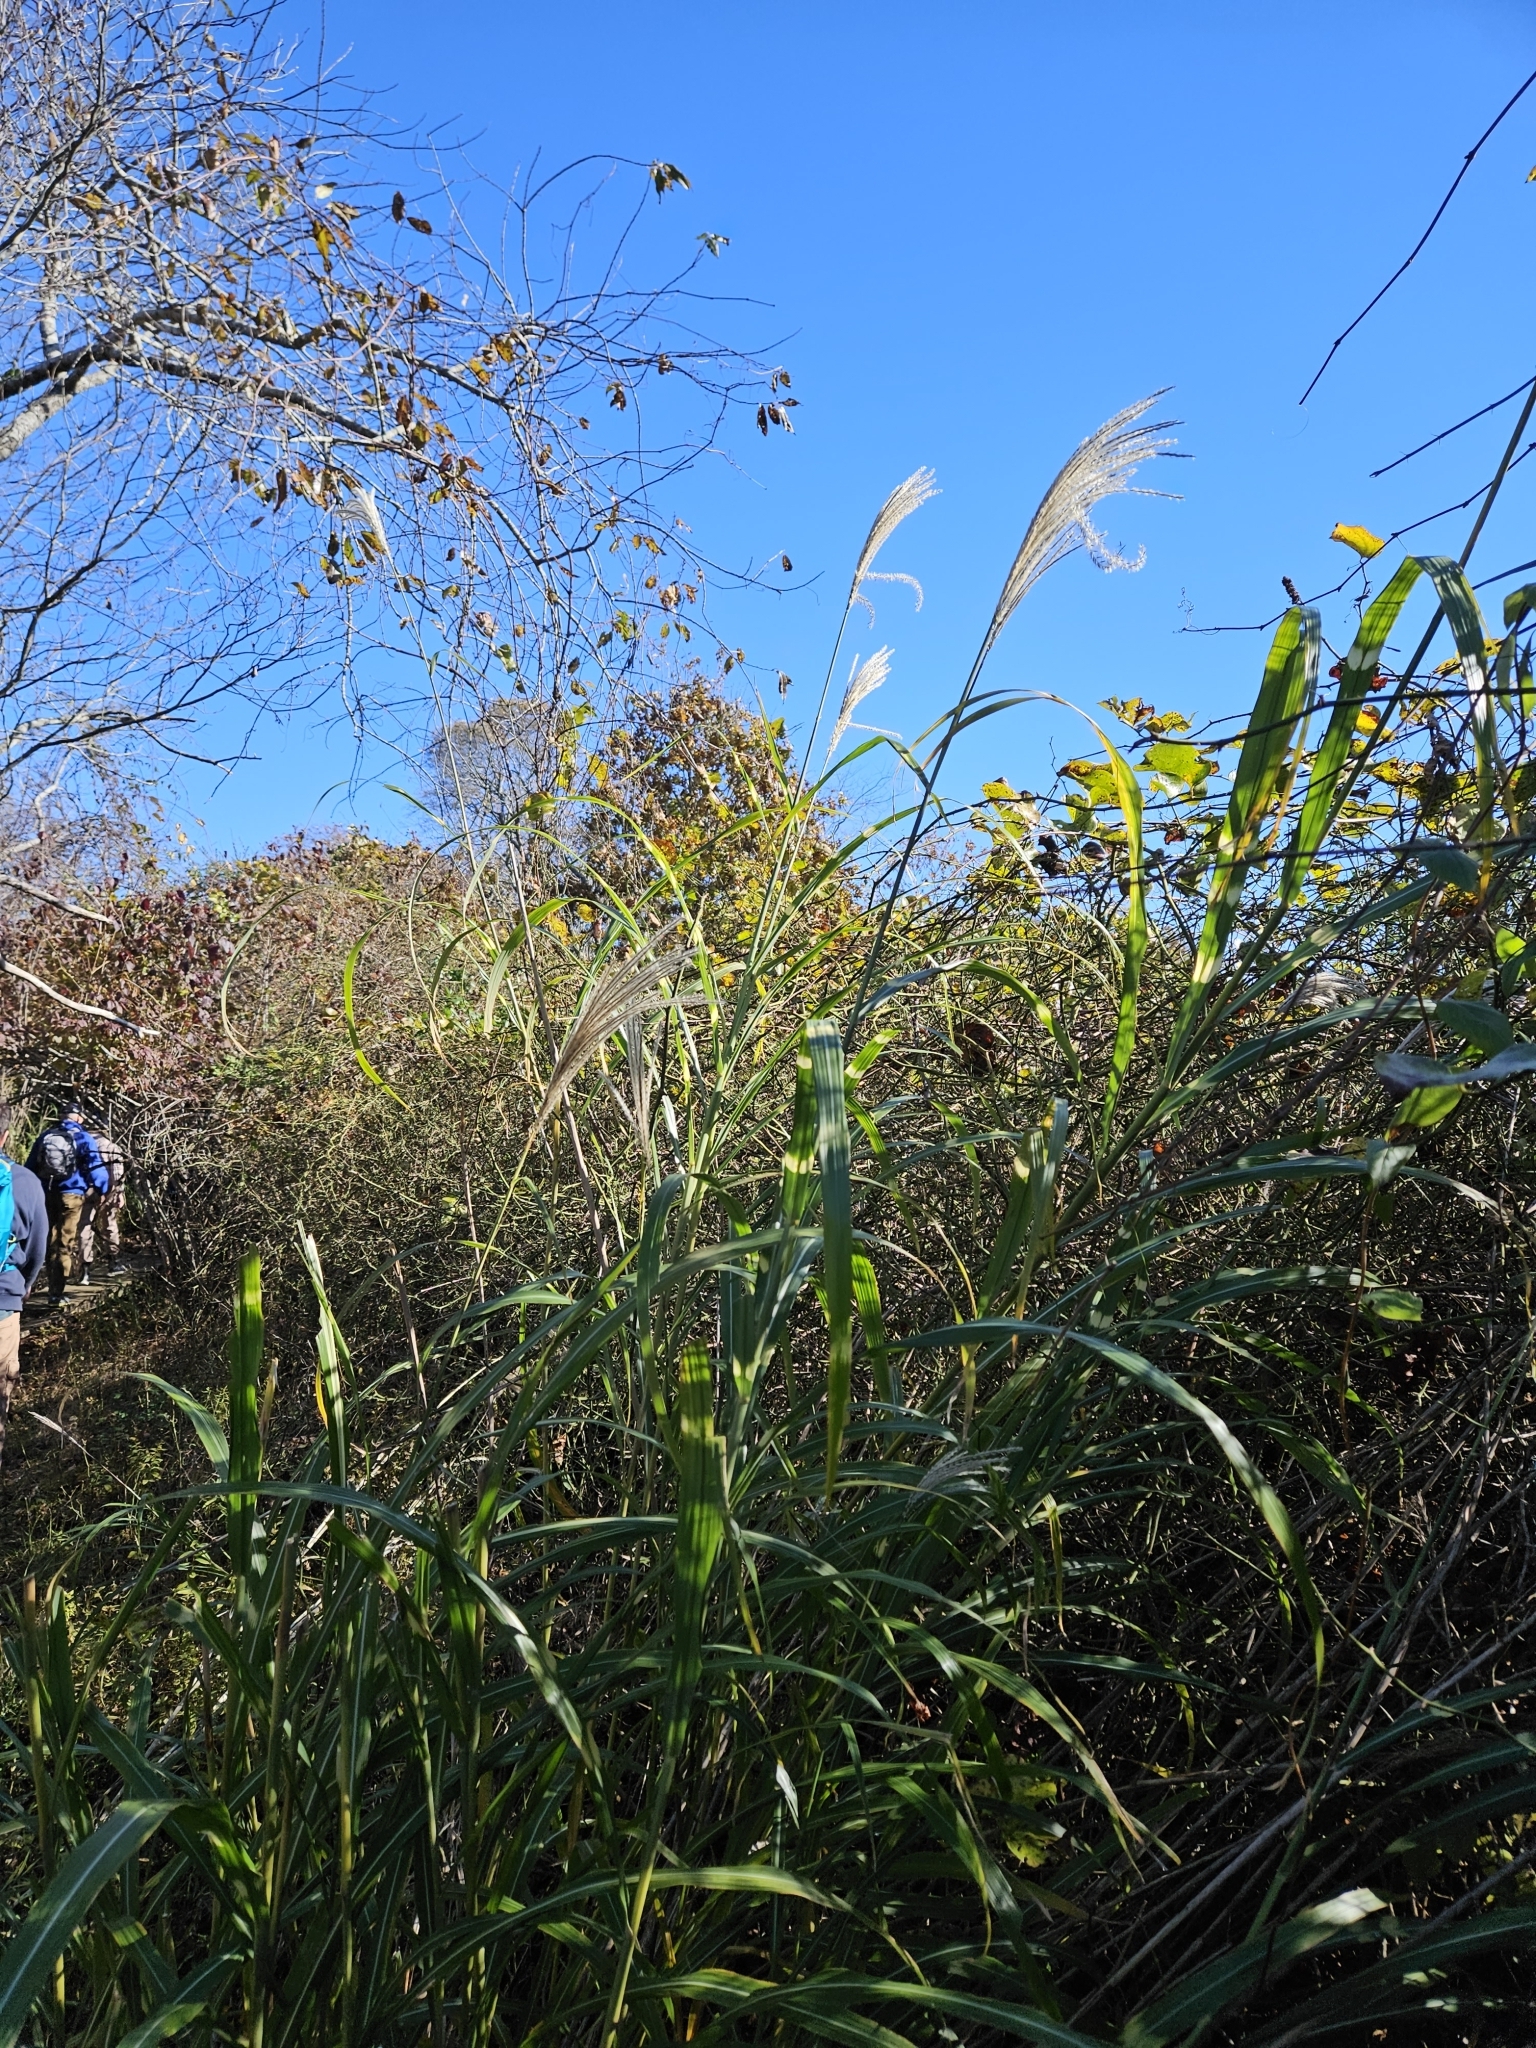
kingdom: Plantae
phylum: Tracheophyta
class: Liliopsida
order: Poales
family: Poaceae
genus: Miscanthus
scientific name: Miscanthus sinensis
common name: Chinese silvergrass
